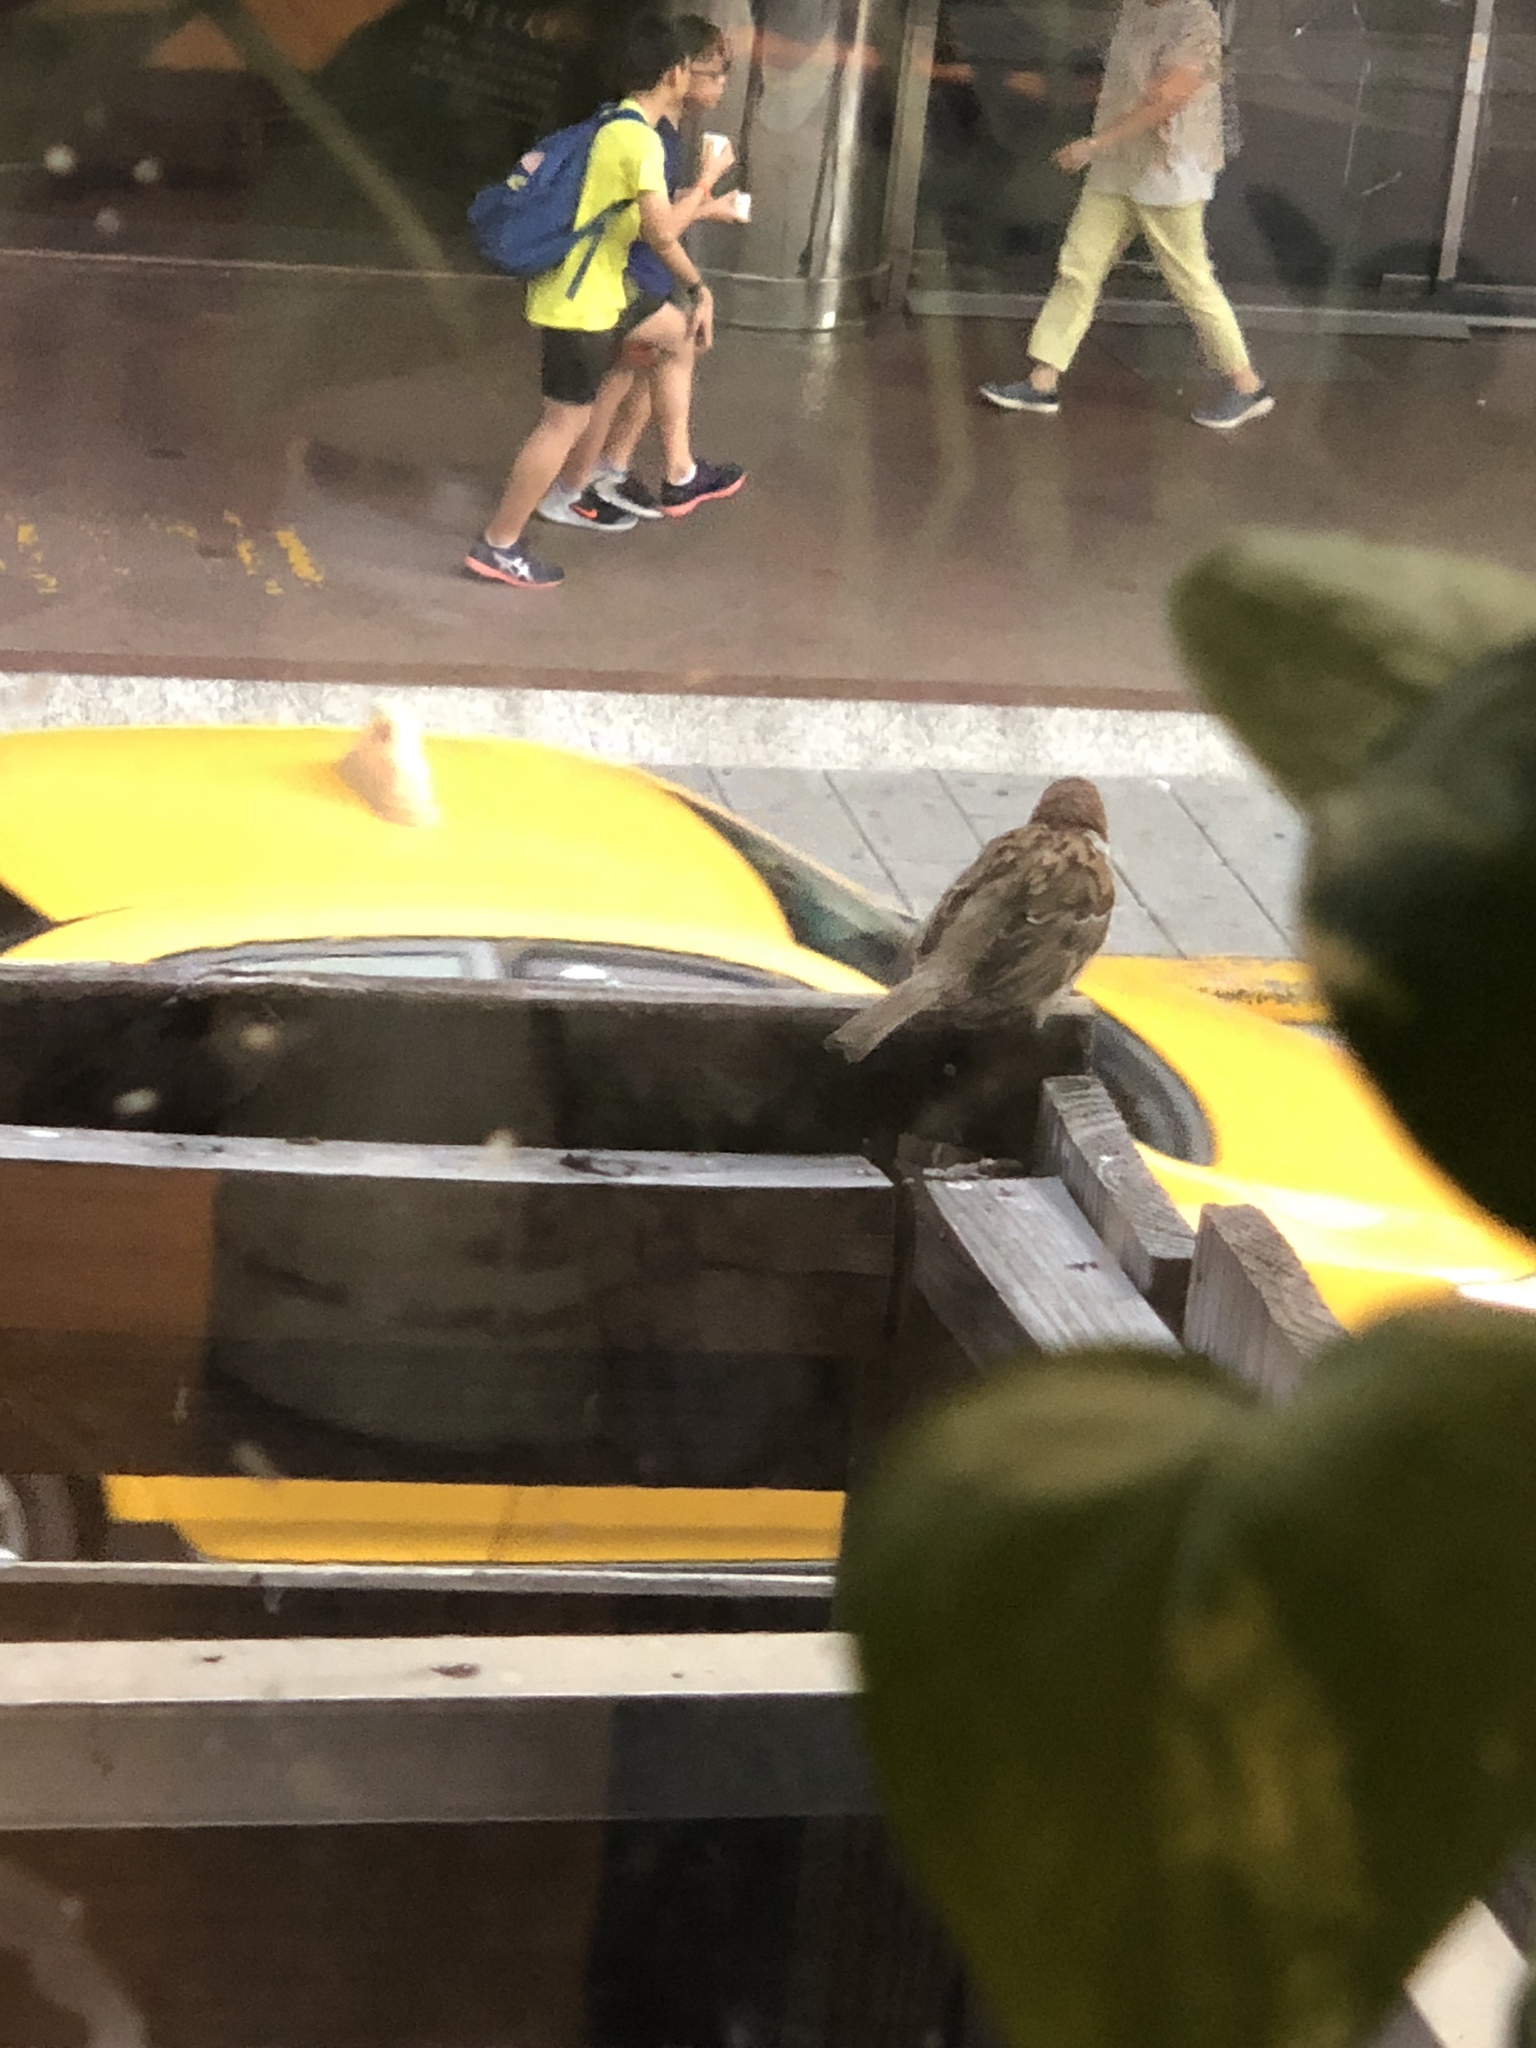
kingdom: Animalia
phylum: Chordata
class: Aves
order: Passeriformes
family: Passeridae
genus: Passer
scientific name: Passer montanus
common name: Eurasian tree sparrow
